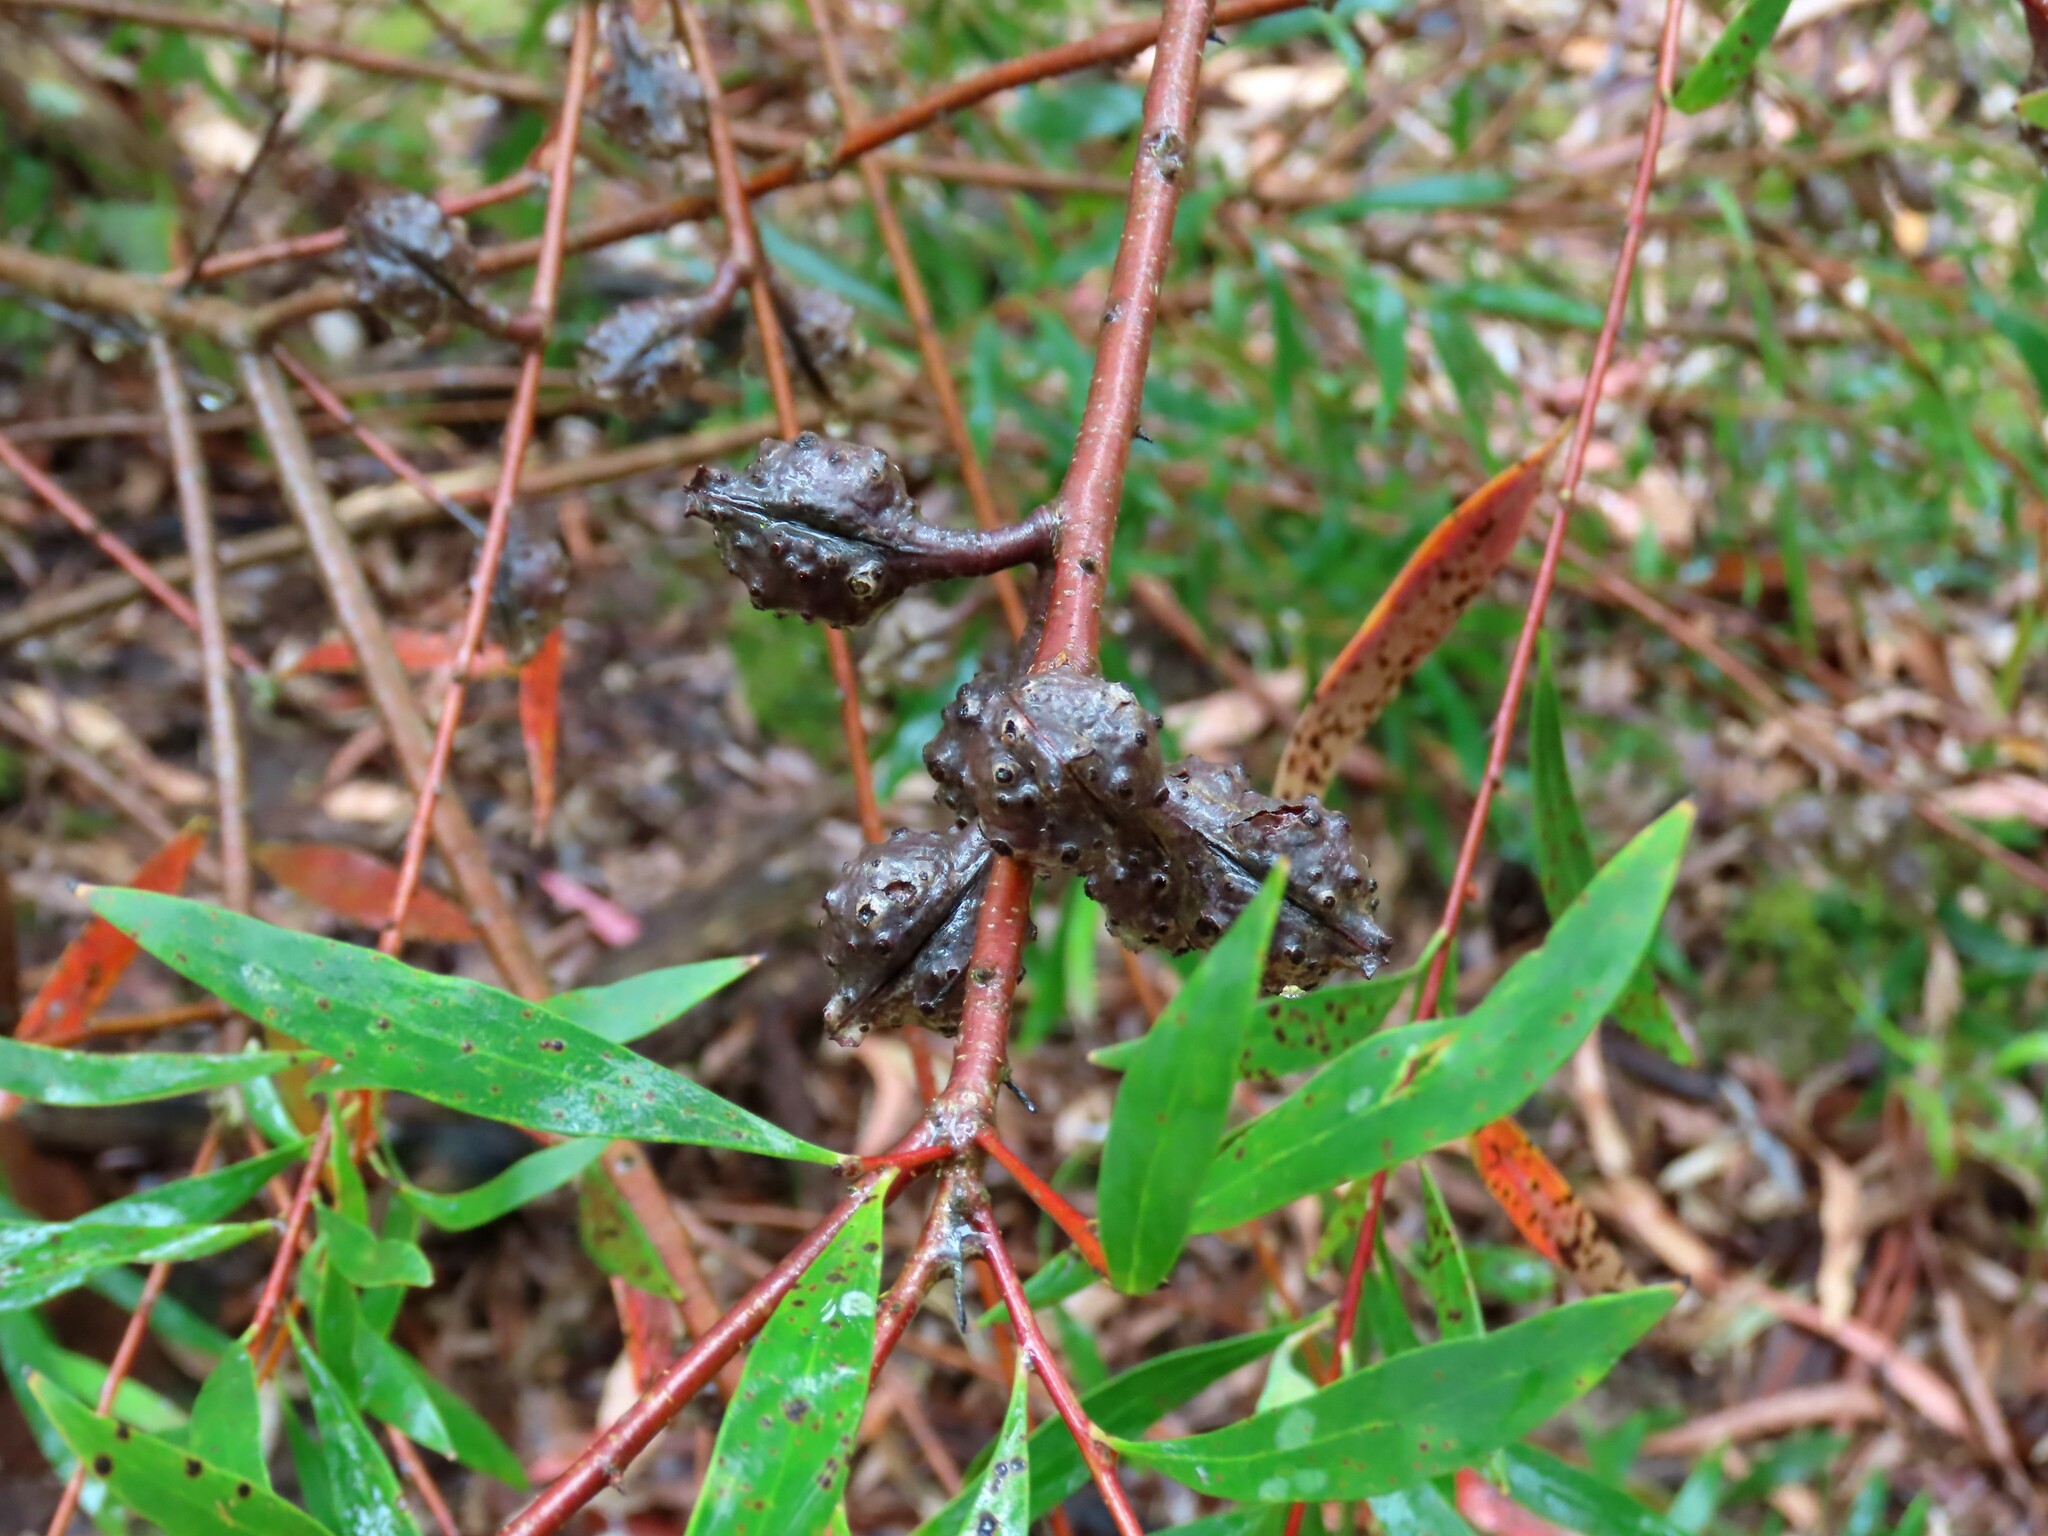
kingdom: Plantae
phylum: Tracheophyta
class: Magnoliopsida
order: Proteales
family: Proteaceae
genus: Hakea
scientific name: Hakea salicifolia
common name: Willow hakea
